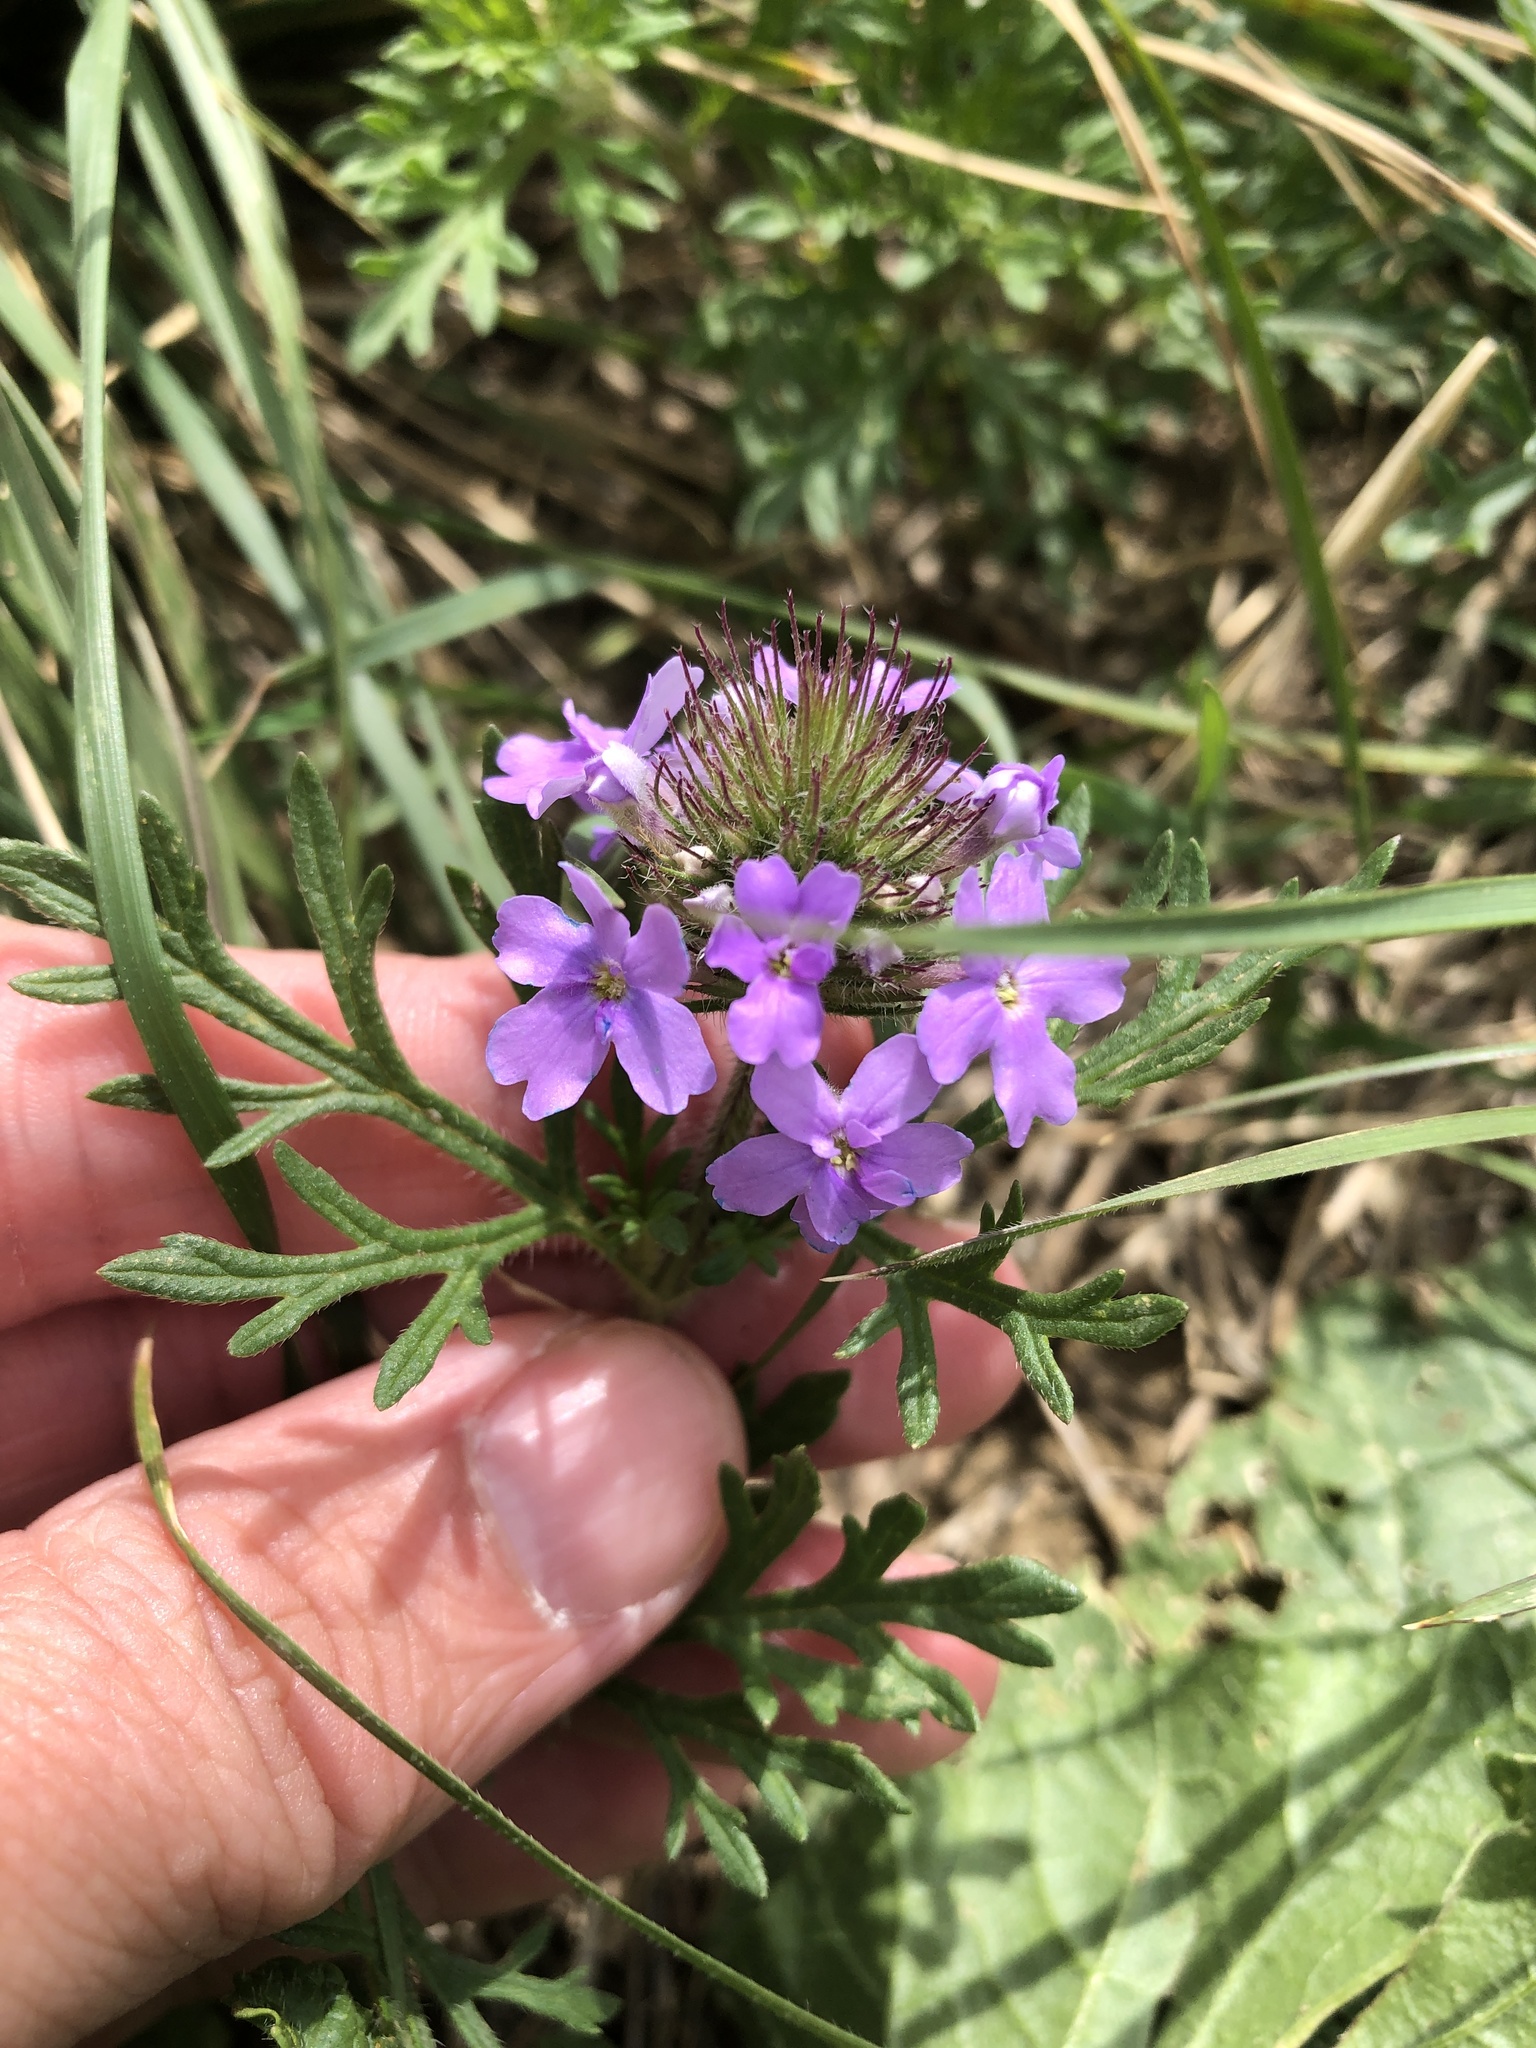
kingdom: Plantae
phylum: Tracheophyta
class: Magnoliopsida
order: Lamiales
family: Verbenaceae
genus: Verbena
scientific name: Verbena bipinnatifida
